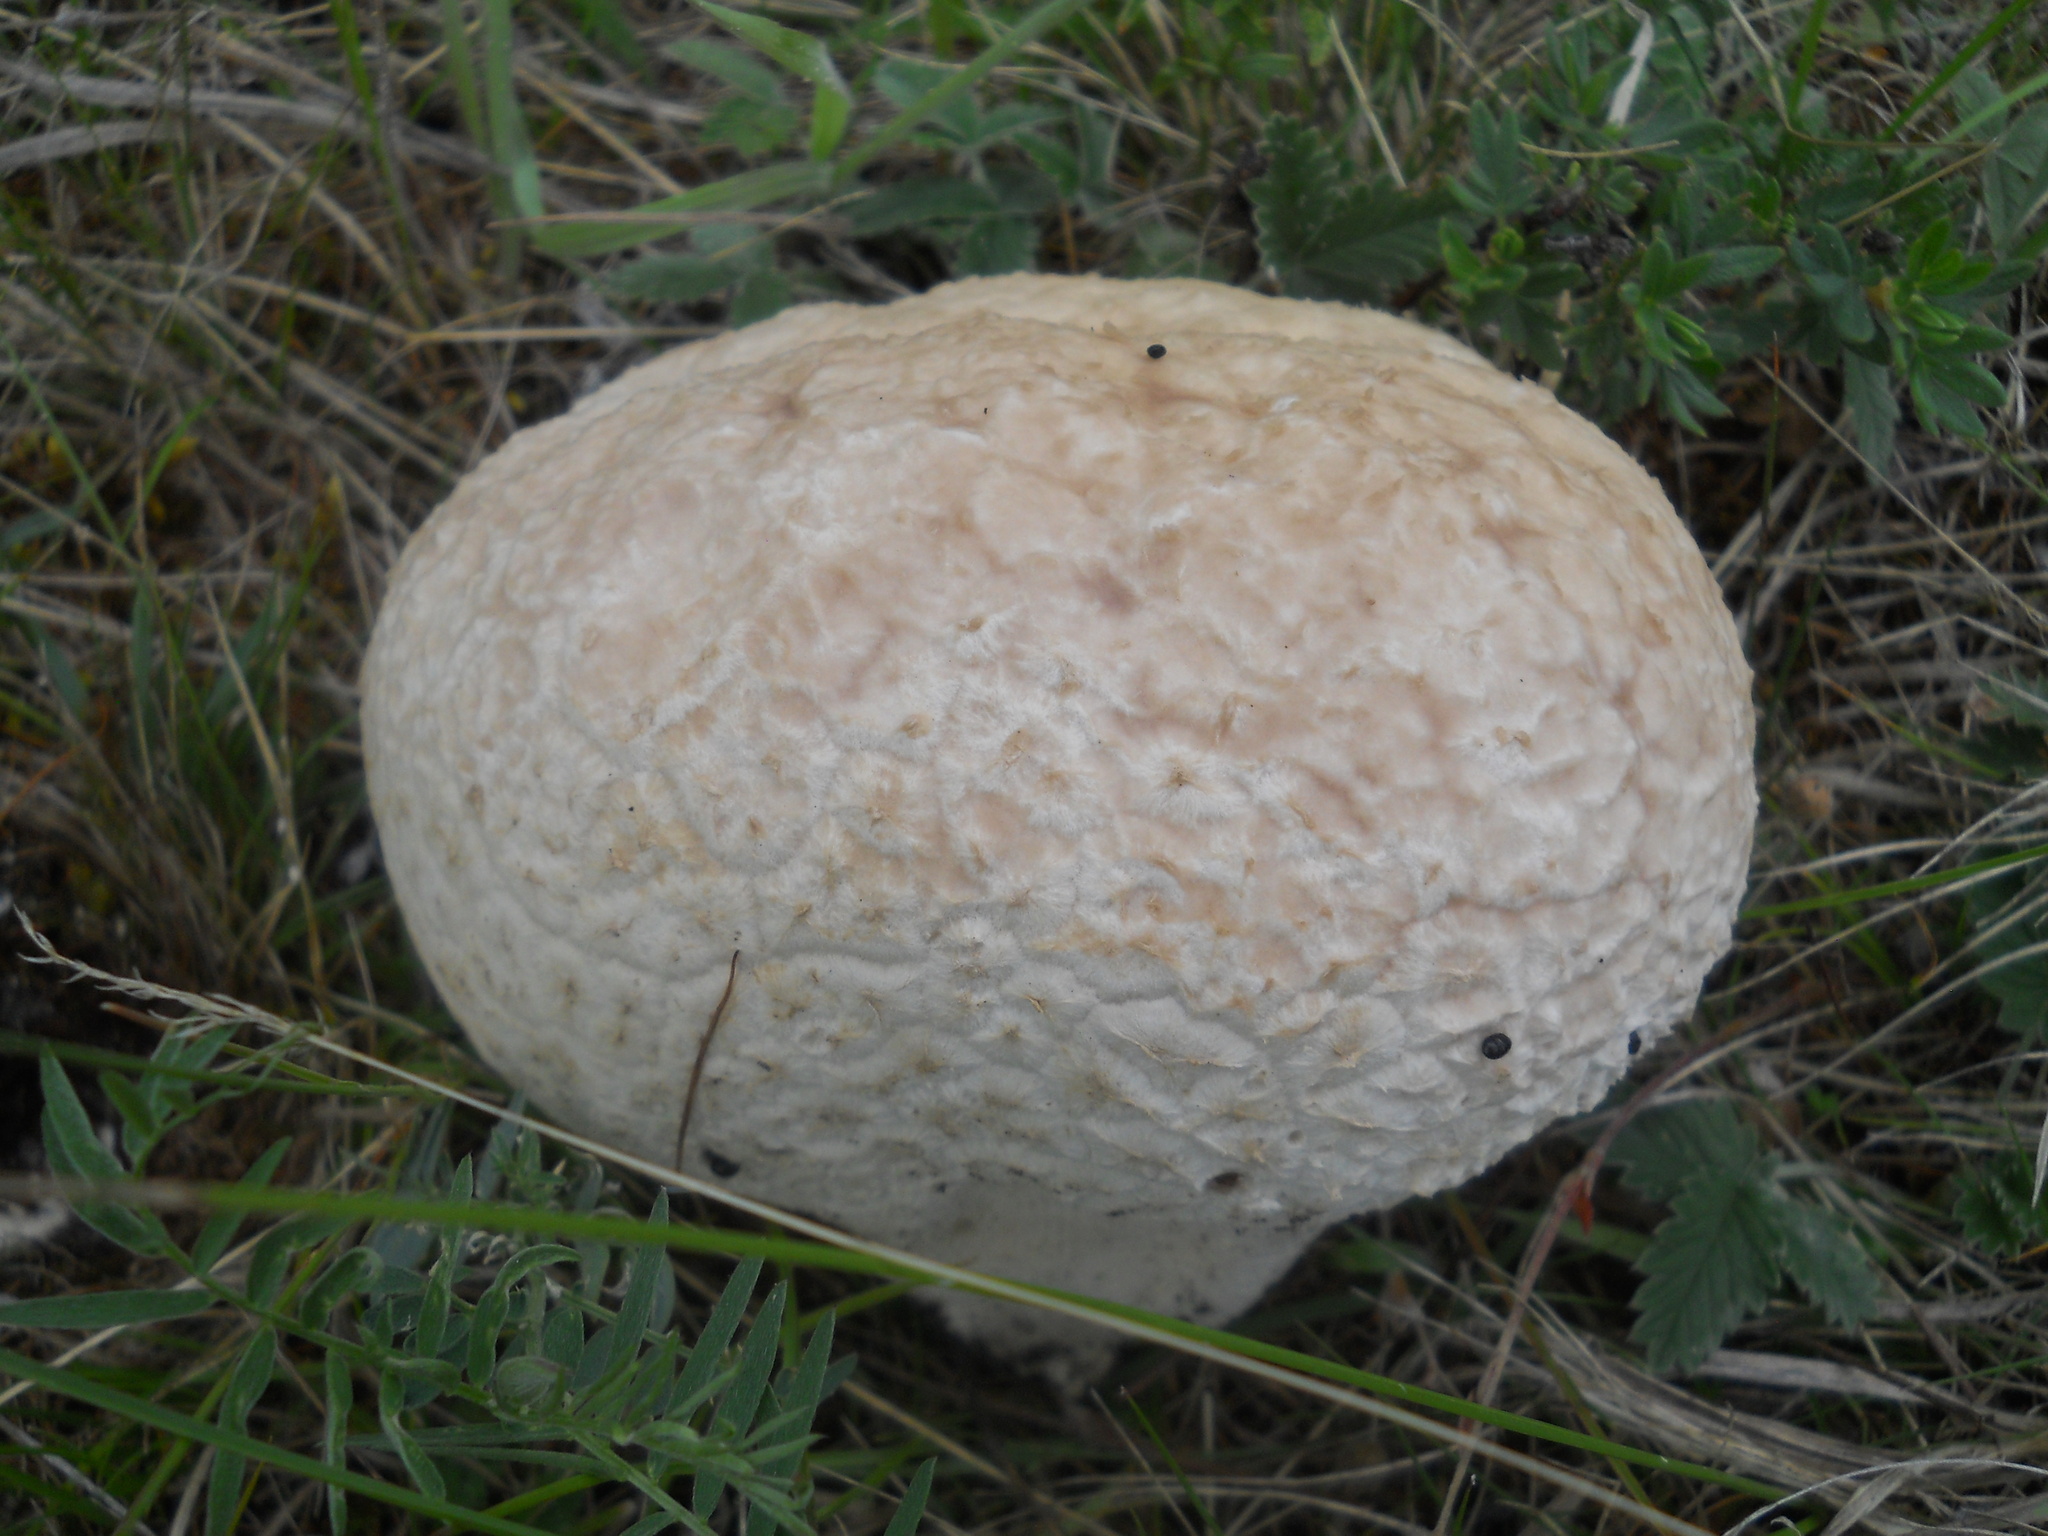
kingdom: Fungi
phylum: Basidiomycota
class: Agaricomycetes
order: Agaricales
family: Lycoperdaceae
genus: Calbovista
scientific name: Calbovista subsculpta
